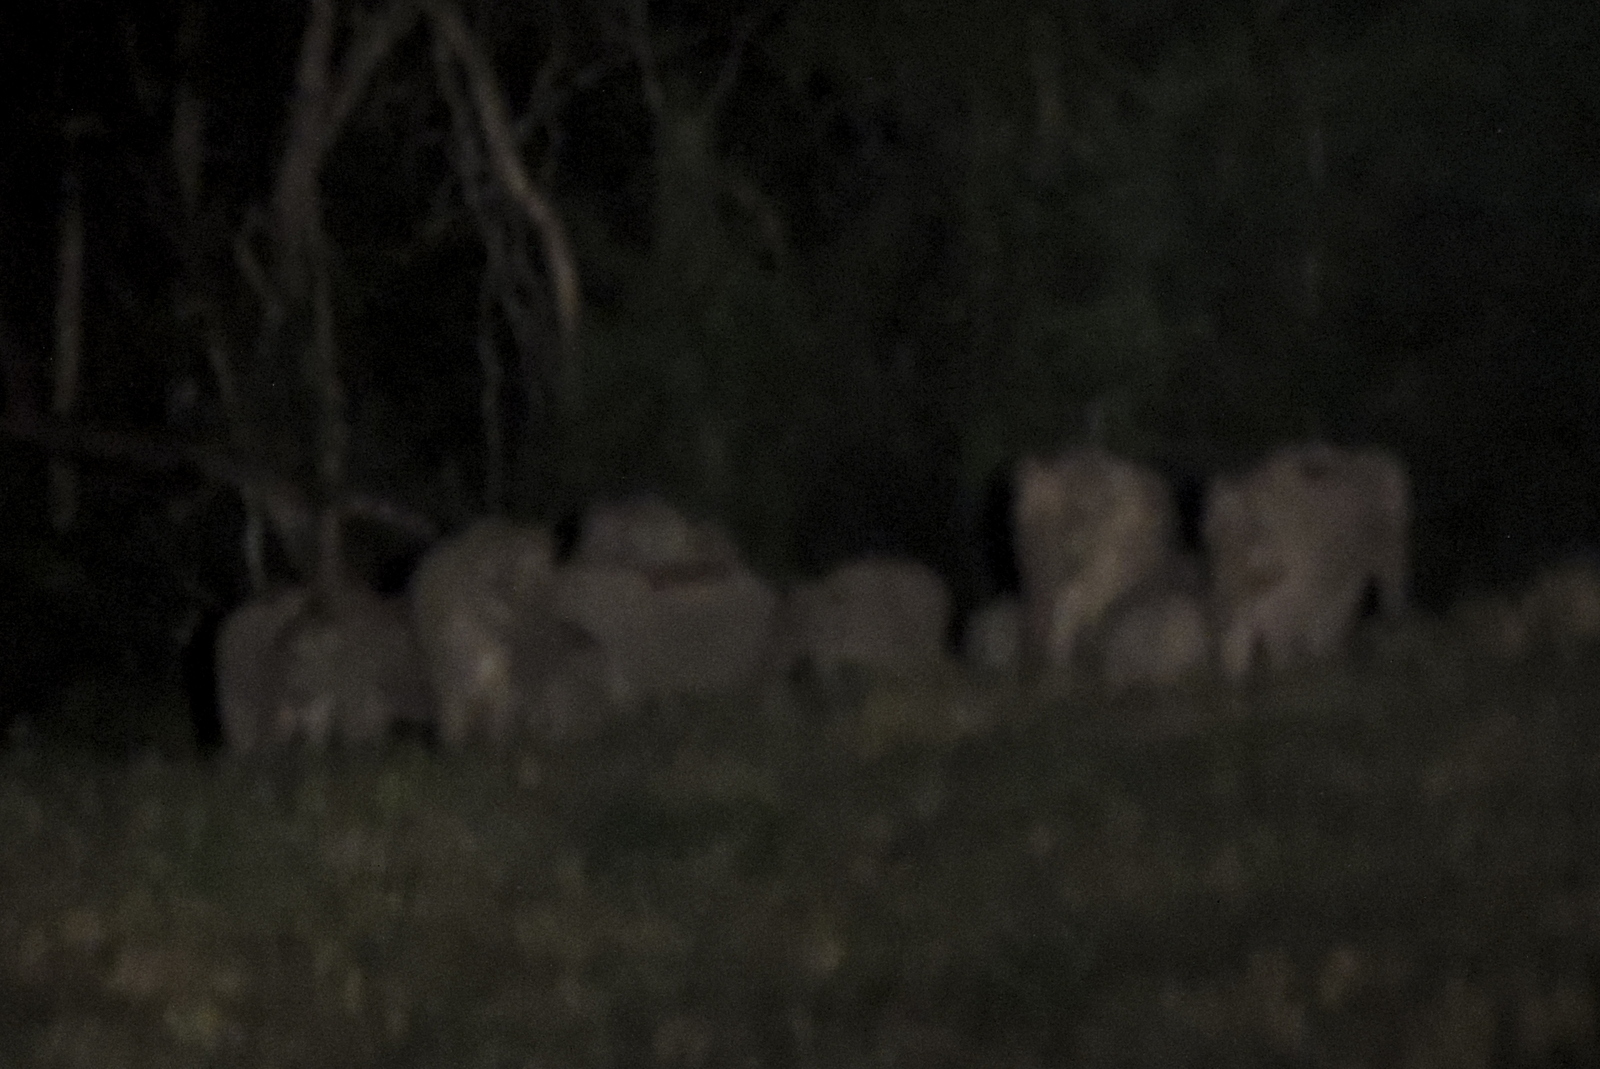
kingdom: Animalia
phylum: Chordata
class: Mammalia
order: Proboscidea
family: Elephantidae
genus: Elephas
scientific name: Elephas maximus
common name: Asian elephant
